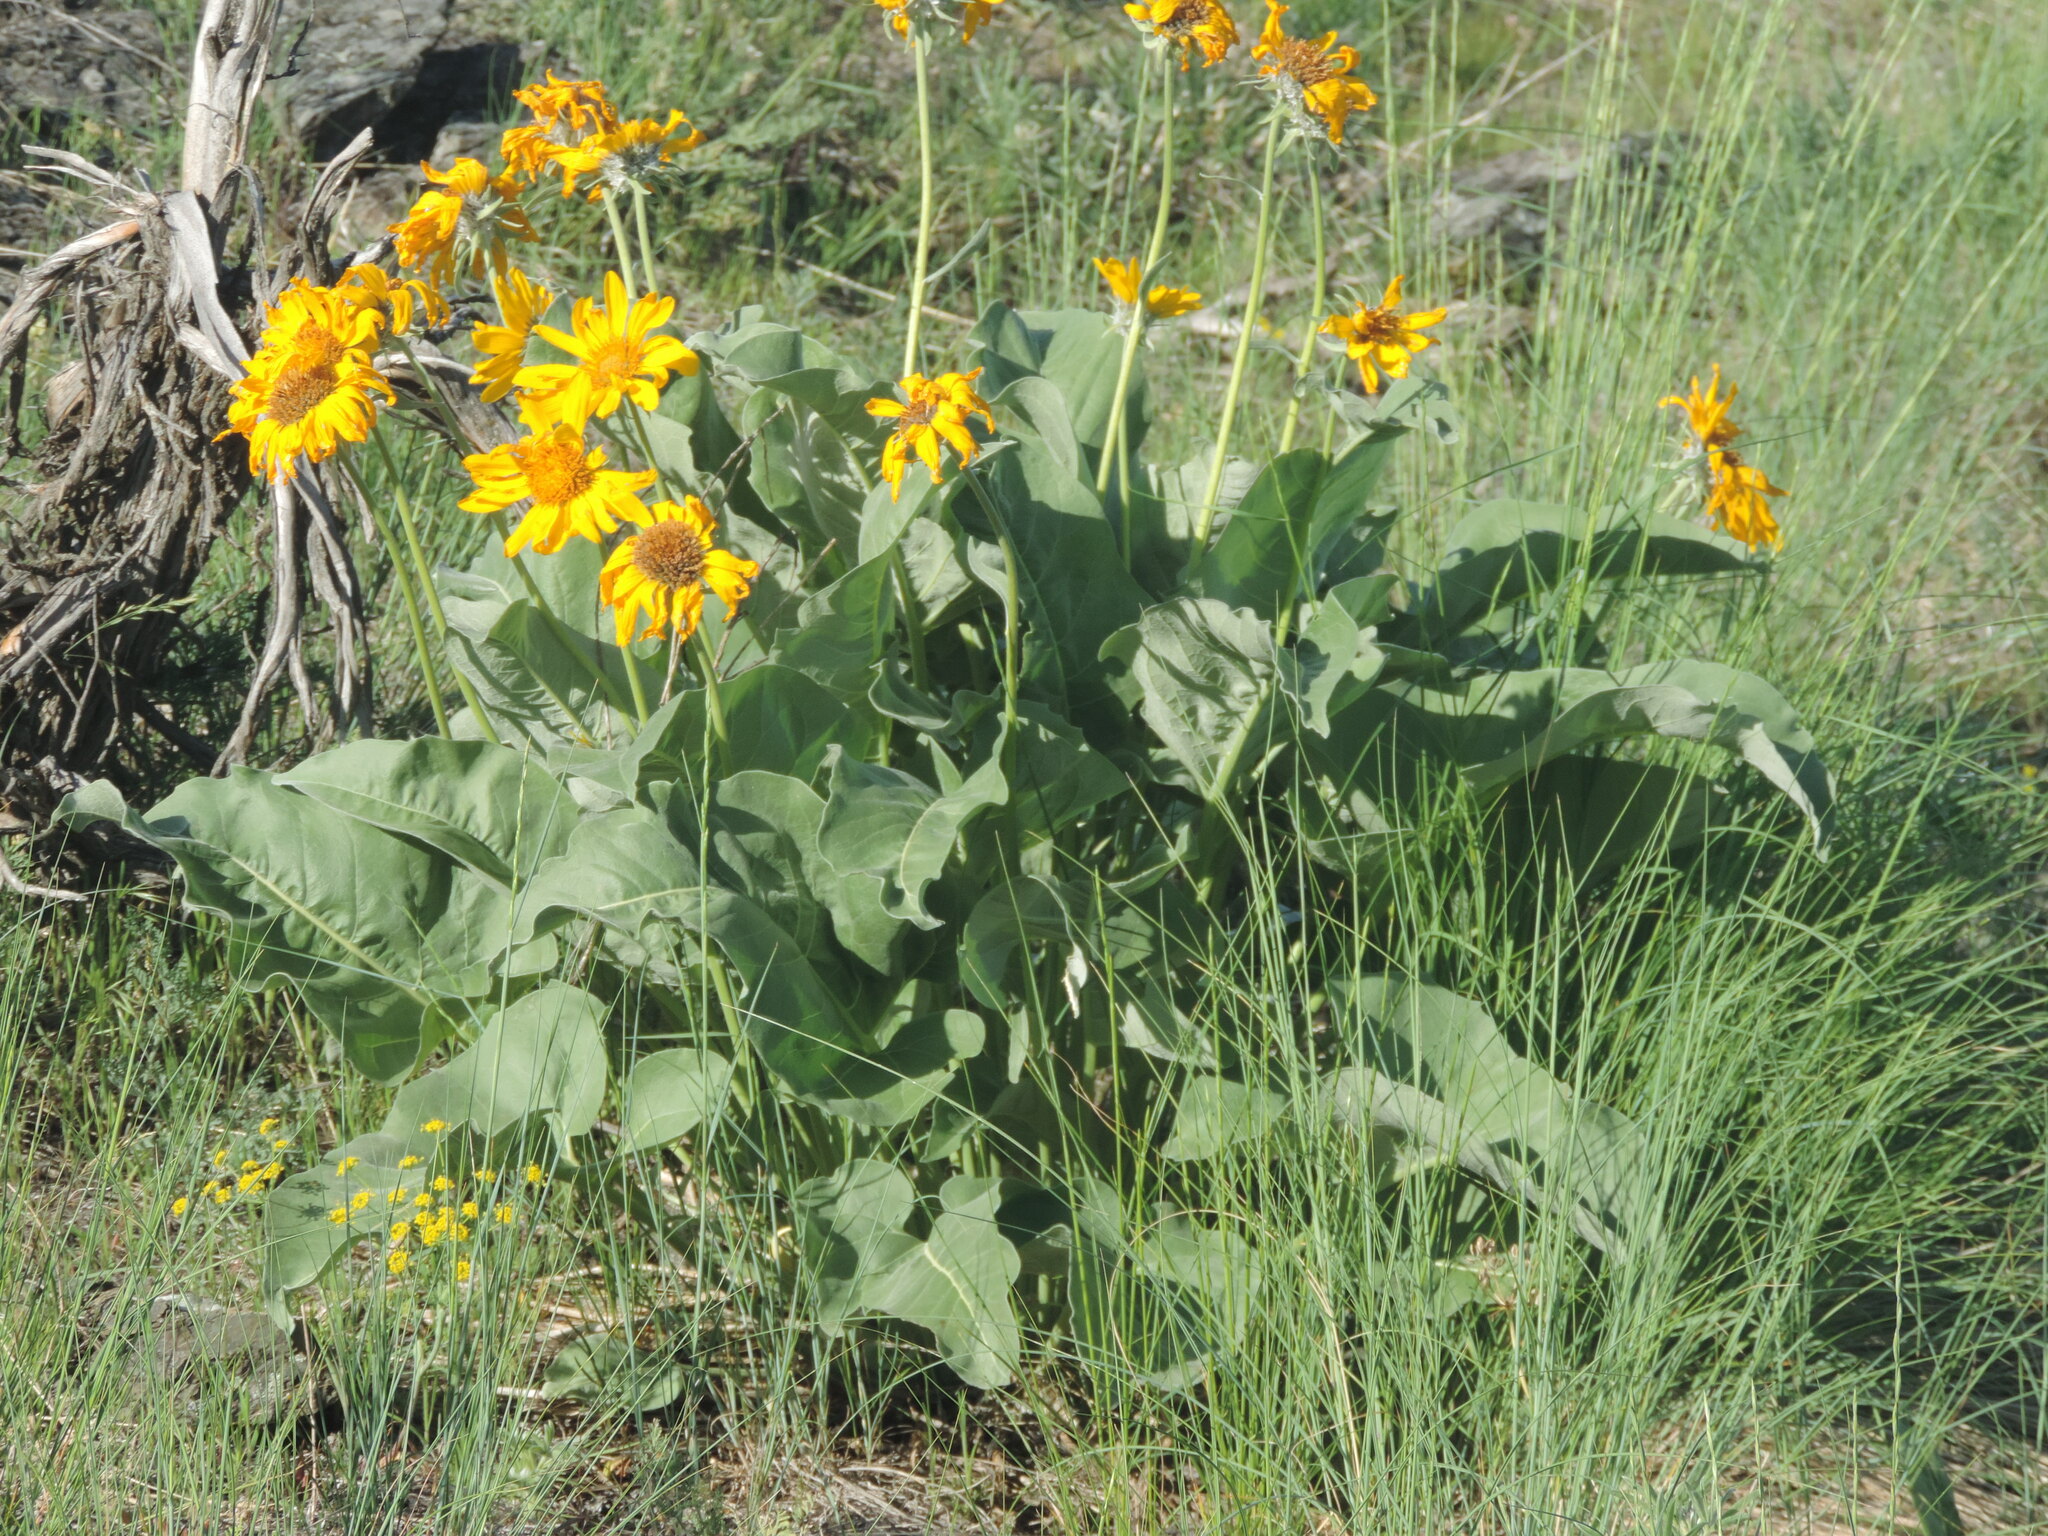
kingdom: Plantae
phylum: Tracheophyta
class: Magnoliopsida
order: Asterales
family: Asteraceae
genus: Wyethia
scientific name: Wyethia sagittata
